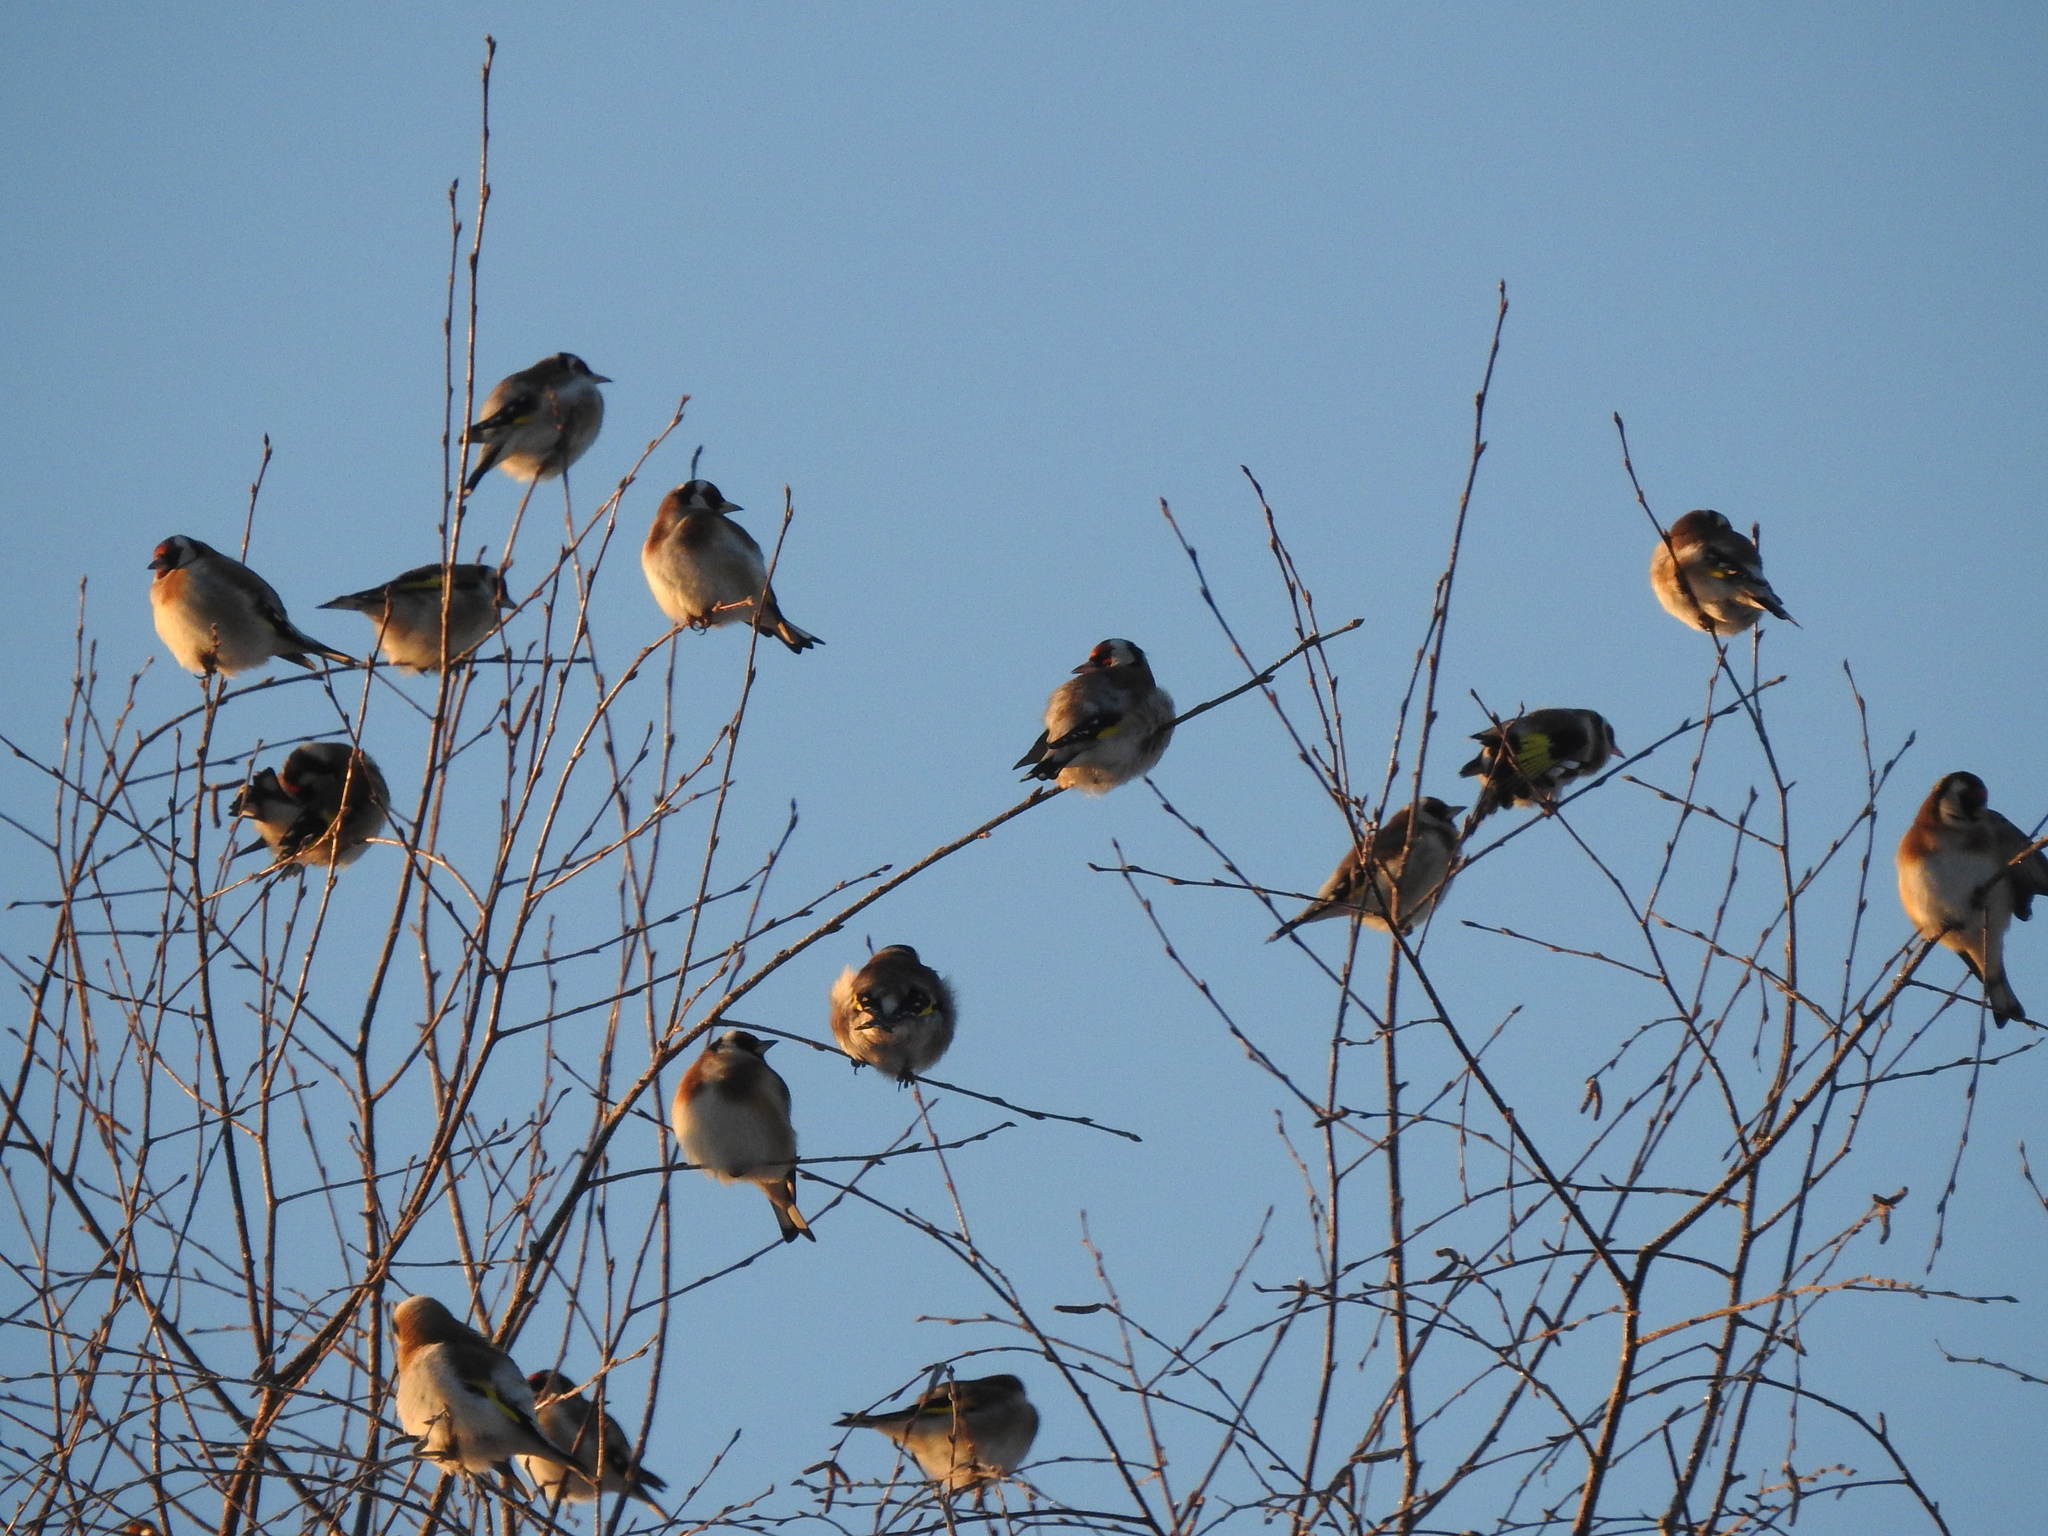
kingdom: Animalia
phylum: Chordata
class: Aves
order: Passeriformes
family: Fringillidae
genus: Carduelis
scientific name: Carduelis carduelis
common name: European goldfinch
